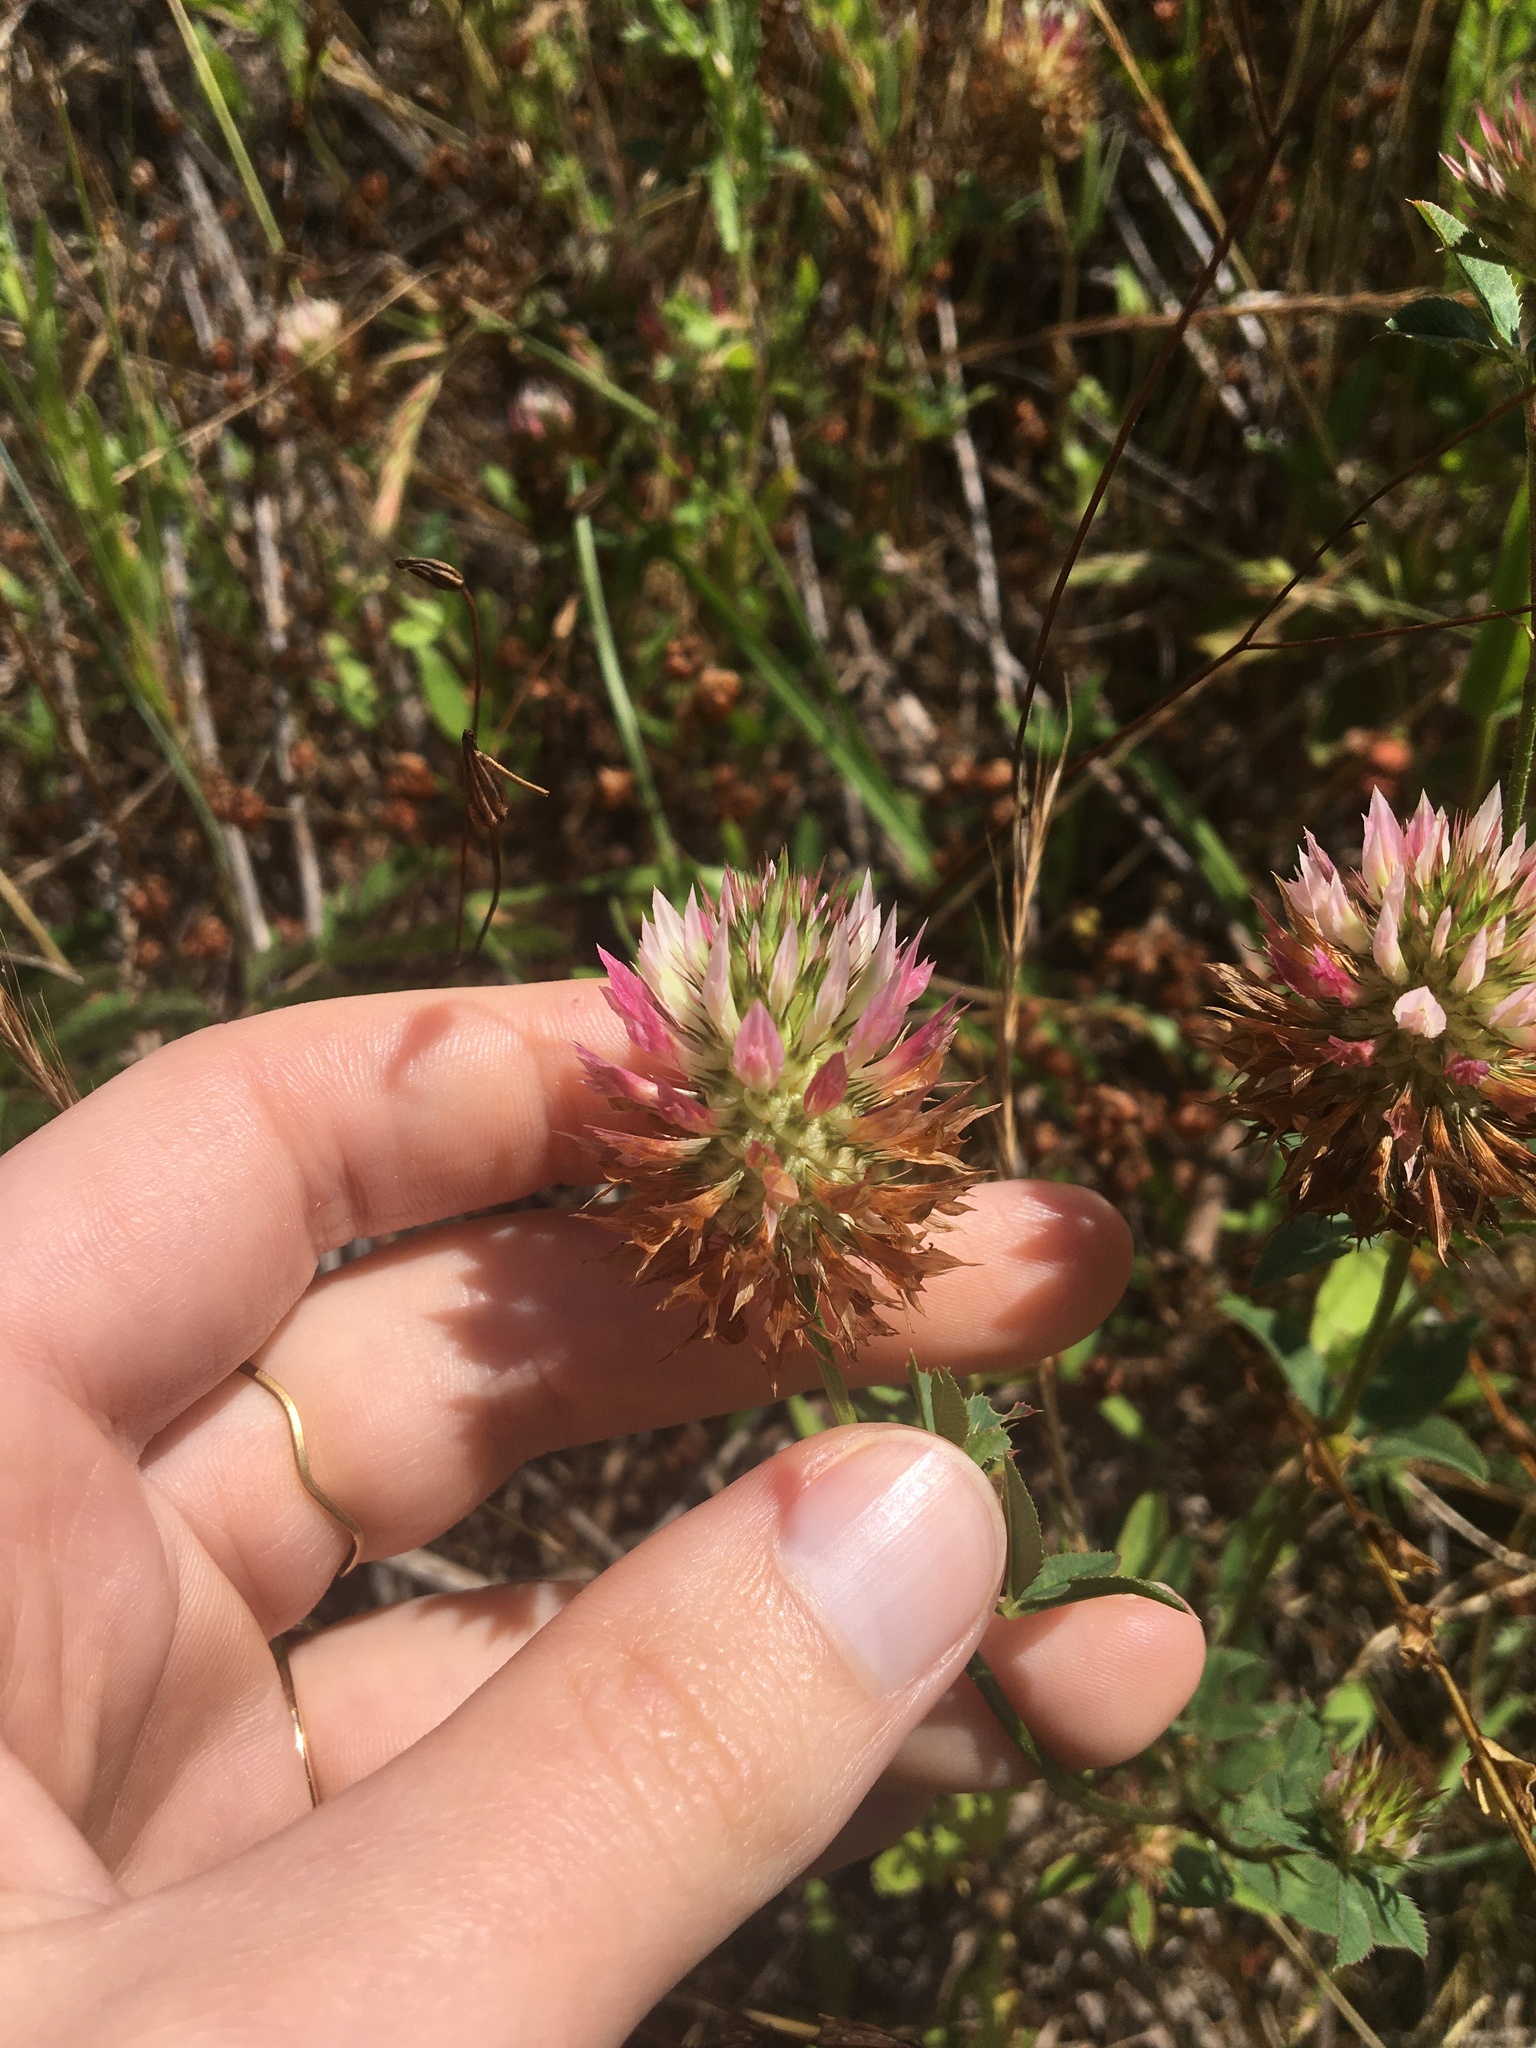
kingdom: Plantae
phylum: Tracheophyta
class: Magnoliopsida
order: Fabales
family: Fabaceae
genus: Trifolium
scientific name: Trifolium vesiculosum
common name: Arrowleaf clover
